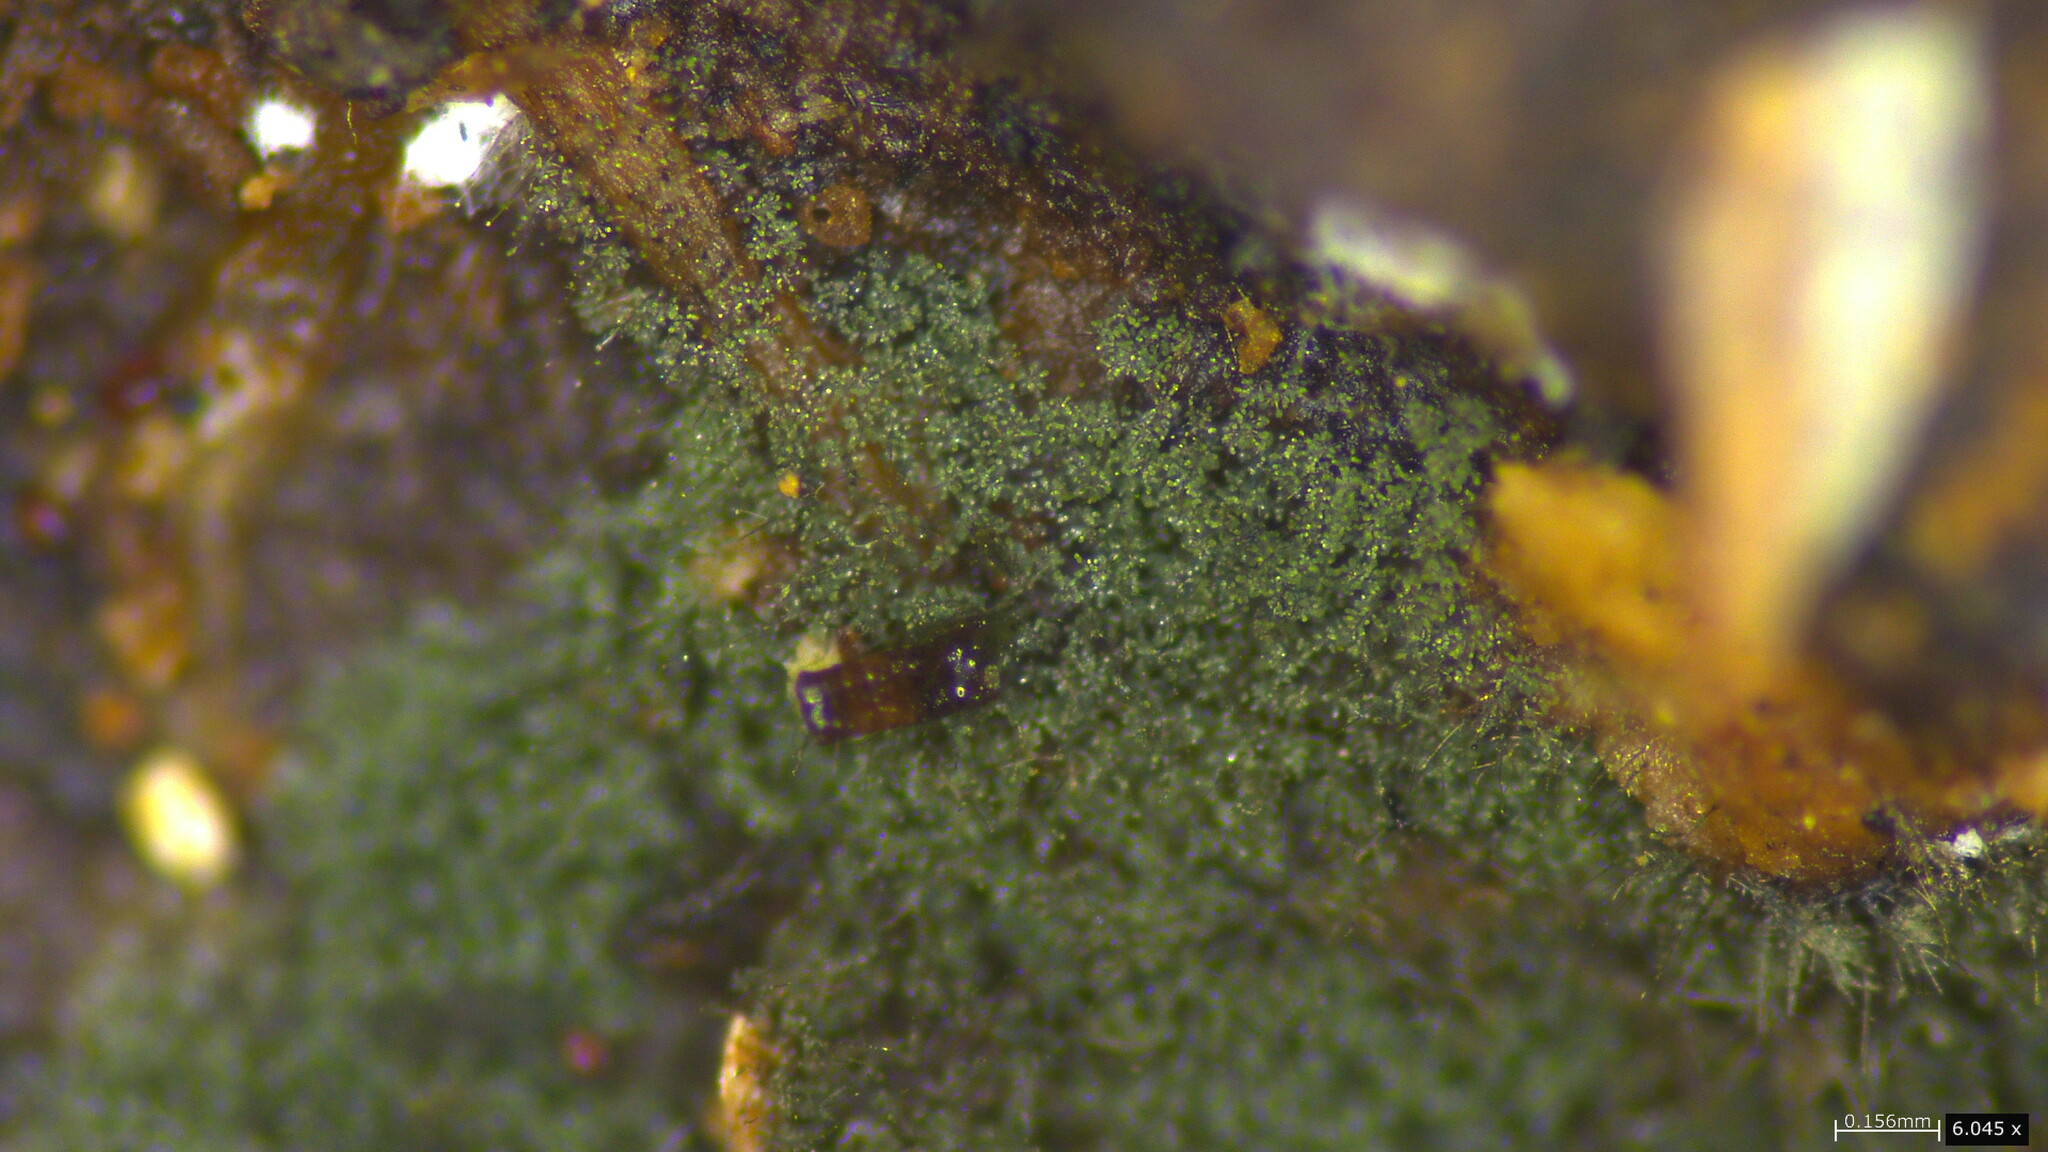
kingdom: Fungi
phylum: Ascomycota
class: Sordariomycetes
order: Chaetosphaeriales
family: Chaetosphaeriaceae
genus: Chloridium
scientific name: Chloridium gonytrichii
